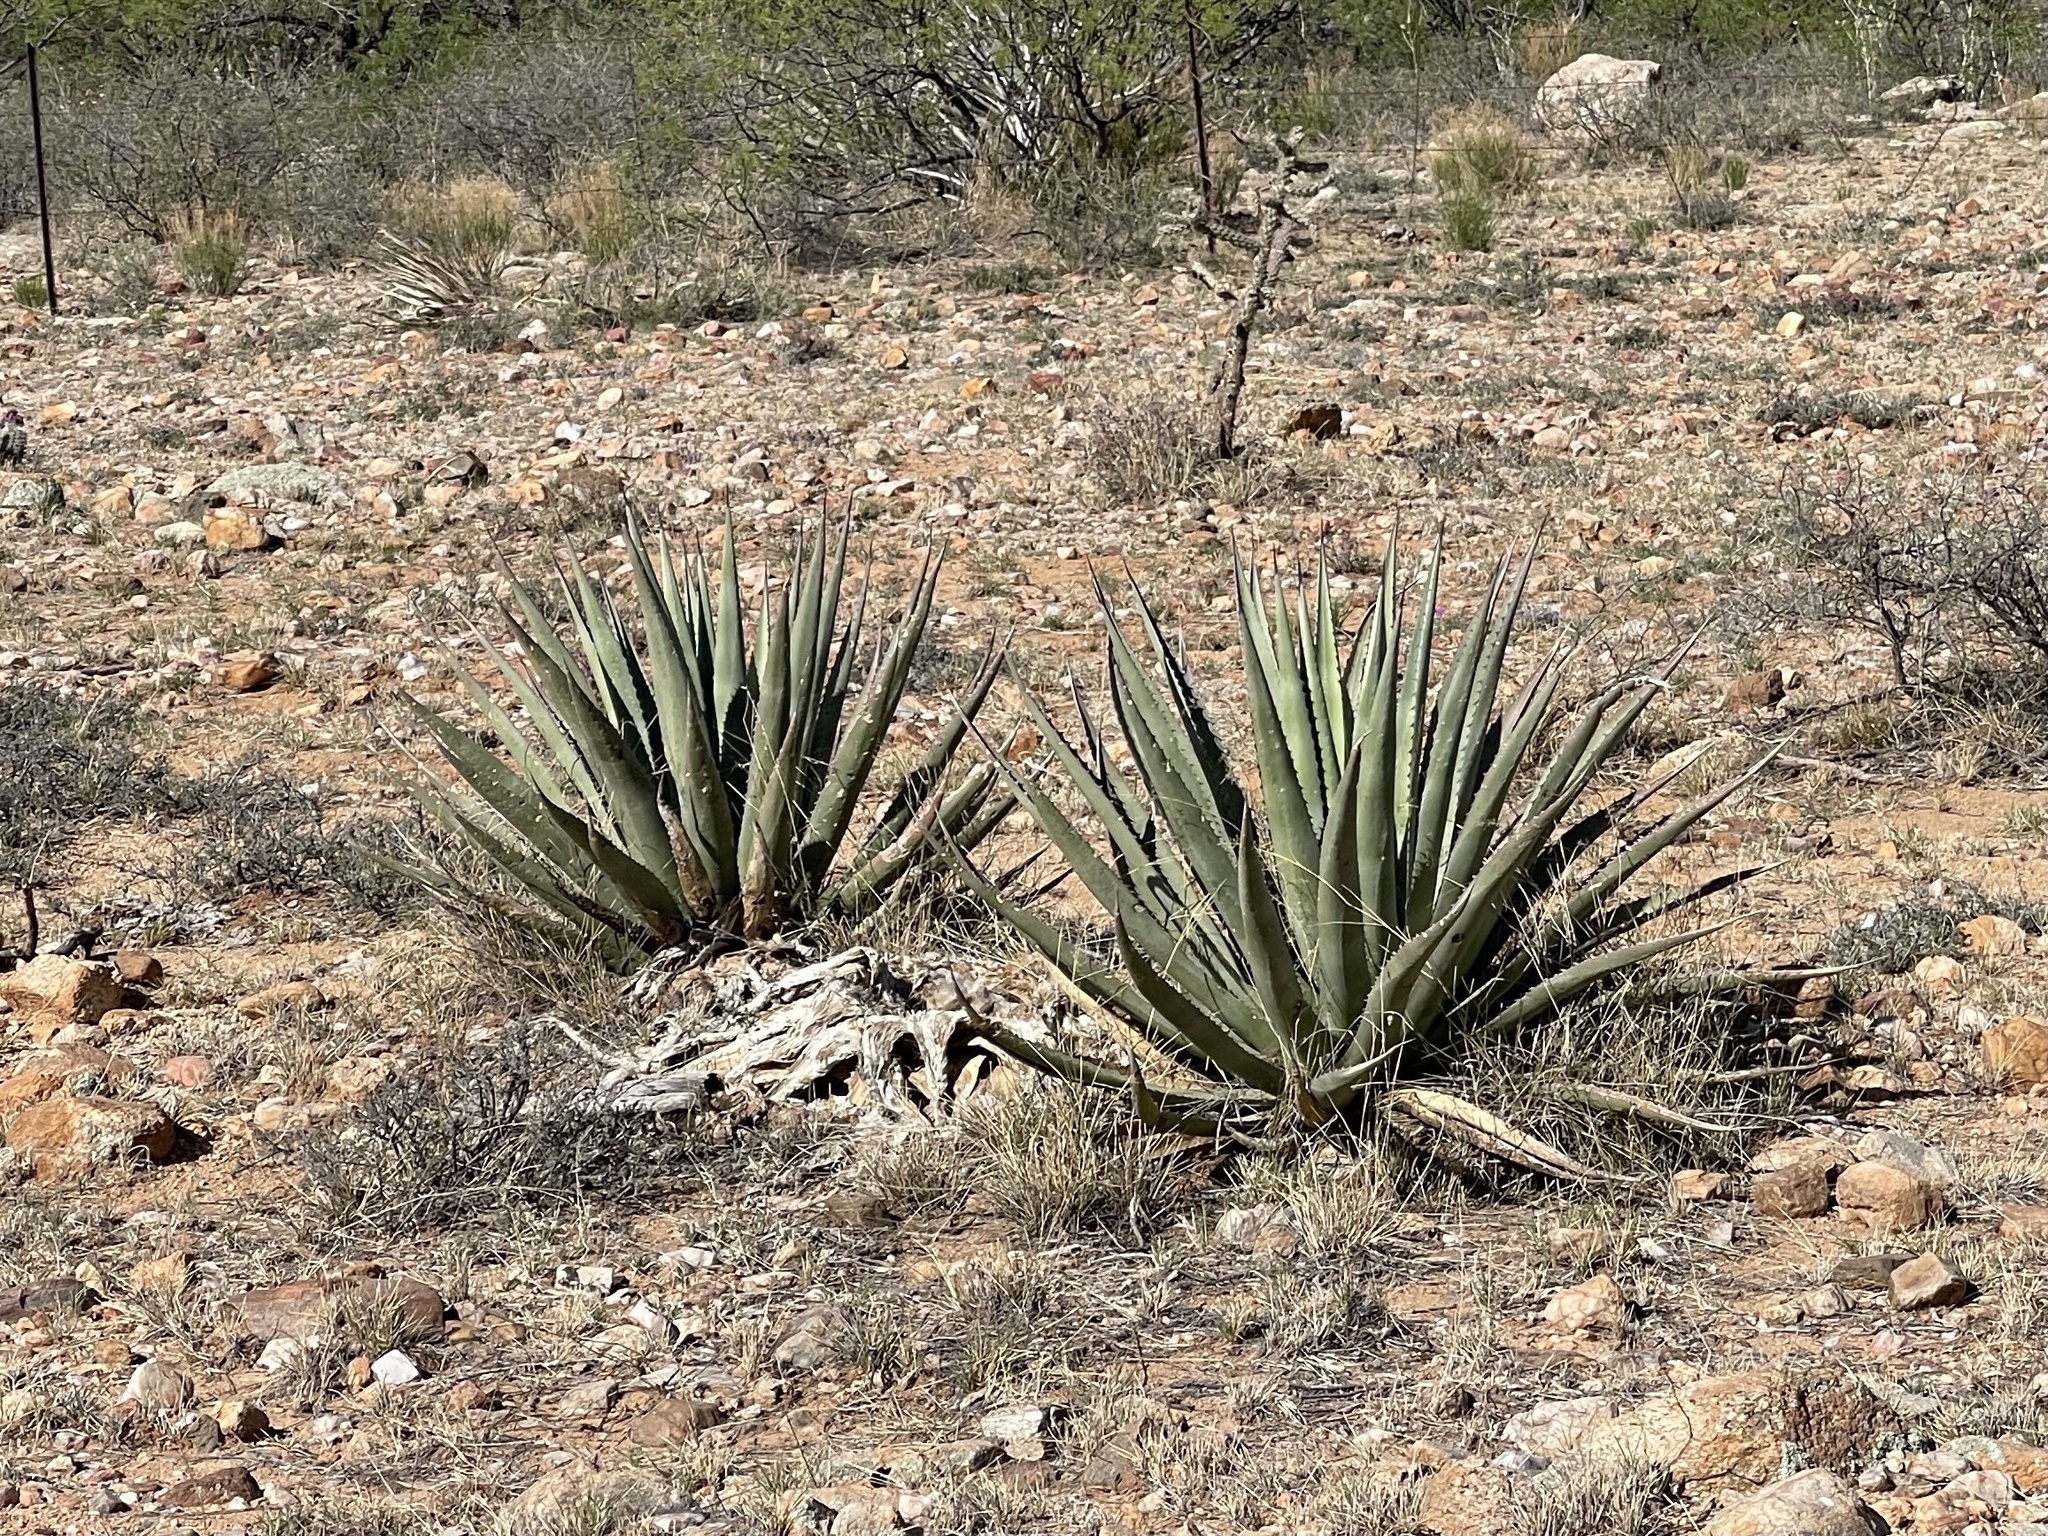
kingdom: Plantae
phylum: Tracheophyta
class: Liliopsida
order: Asparagales
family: Asparagaceae
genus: Agave
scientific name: Agave palmeri
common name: Palmer agave
